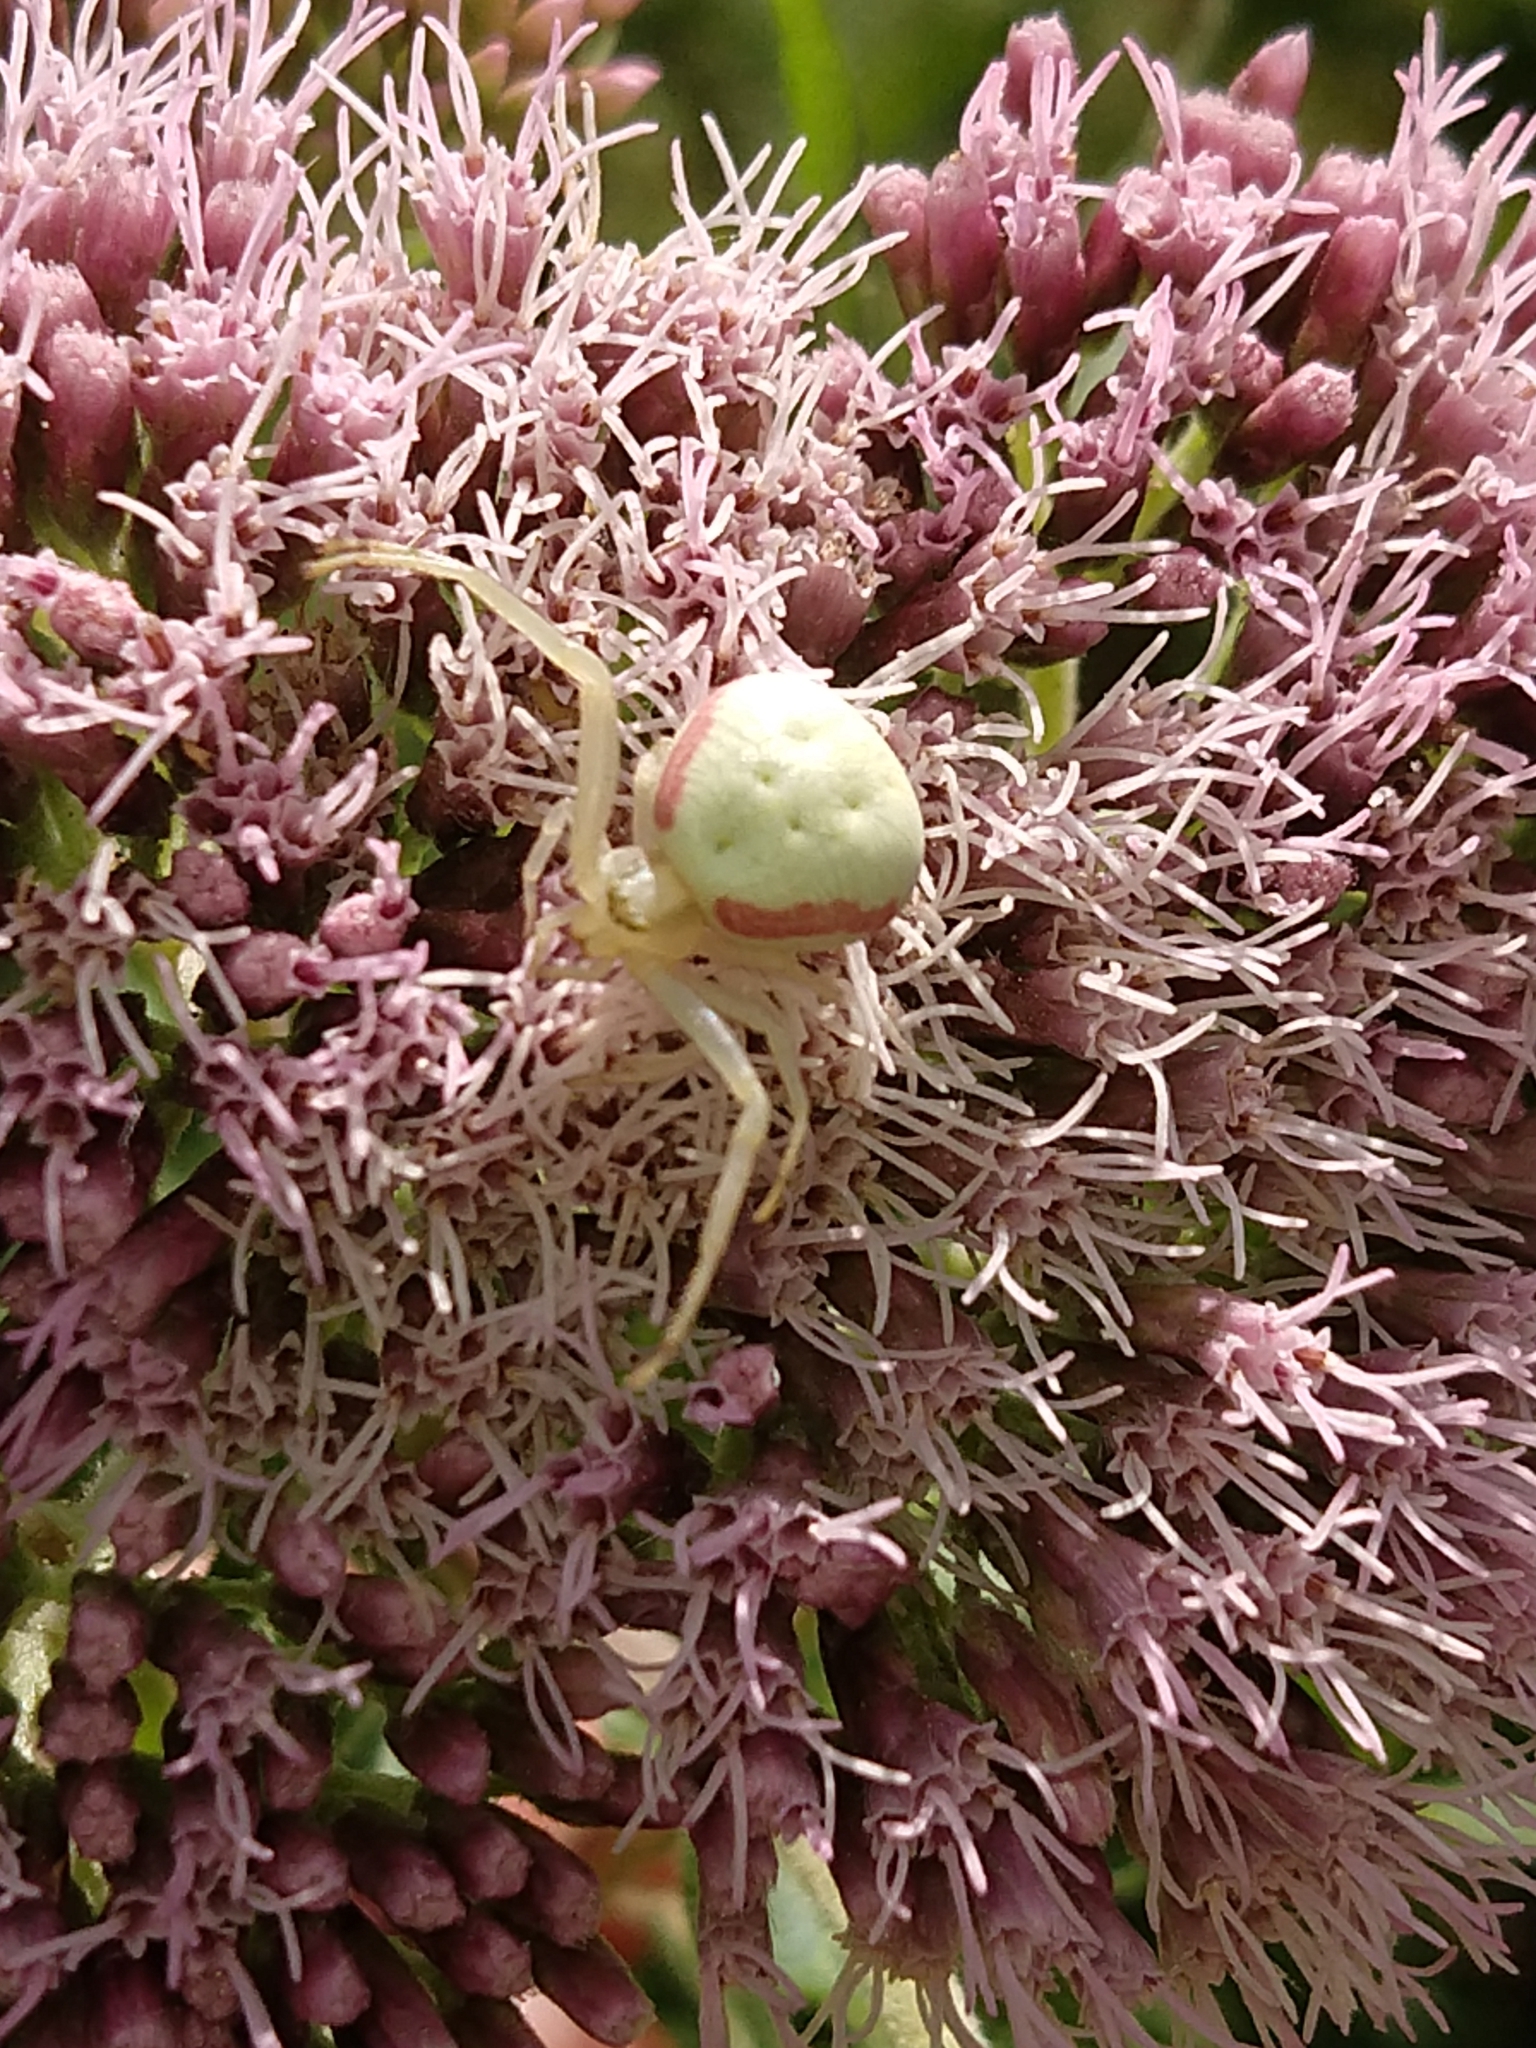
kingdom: Animalia
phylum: Arthropoda
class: Arachnida
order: Araneae
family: Thomisidae
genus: Misumena
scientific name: Misumena vatia
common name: Goldenrod crab spider
